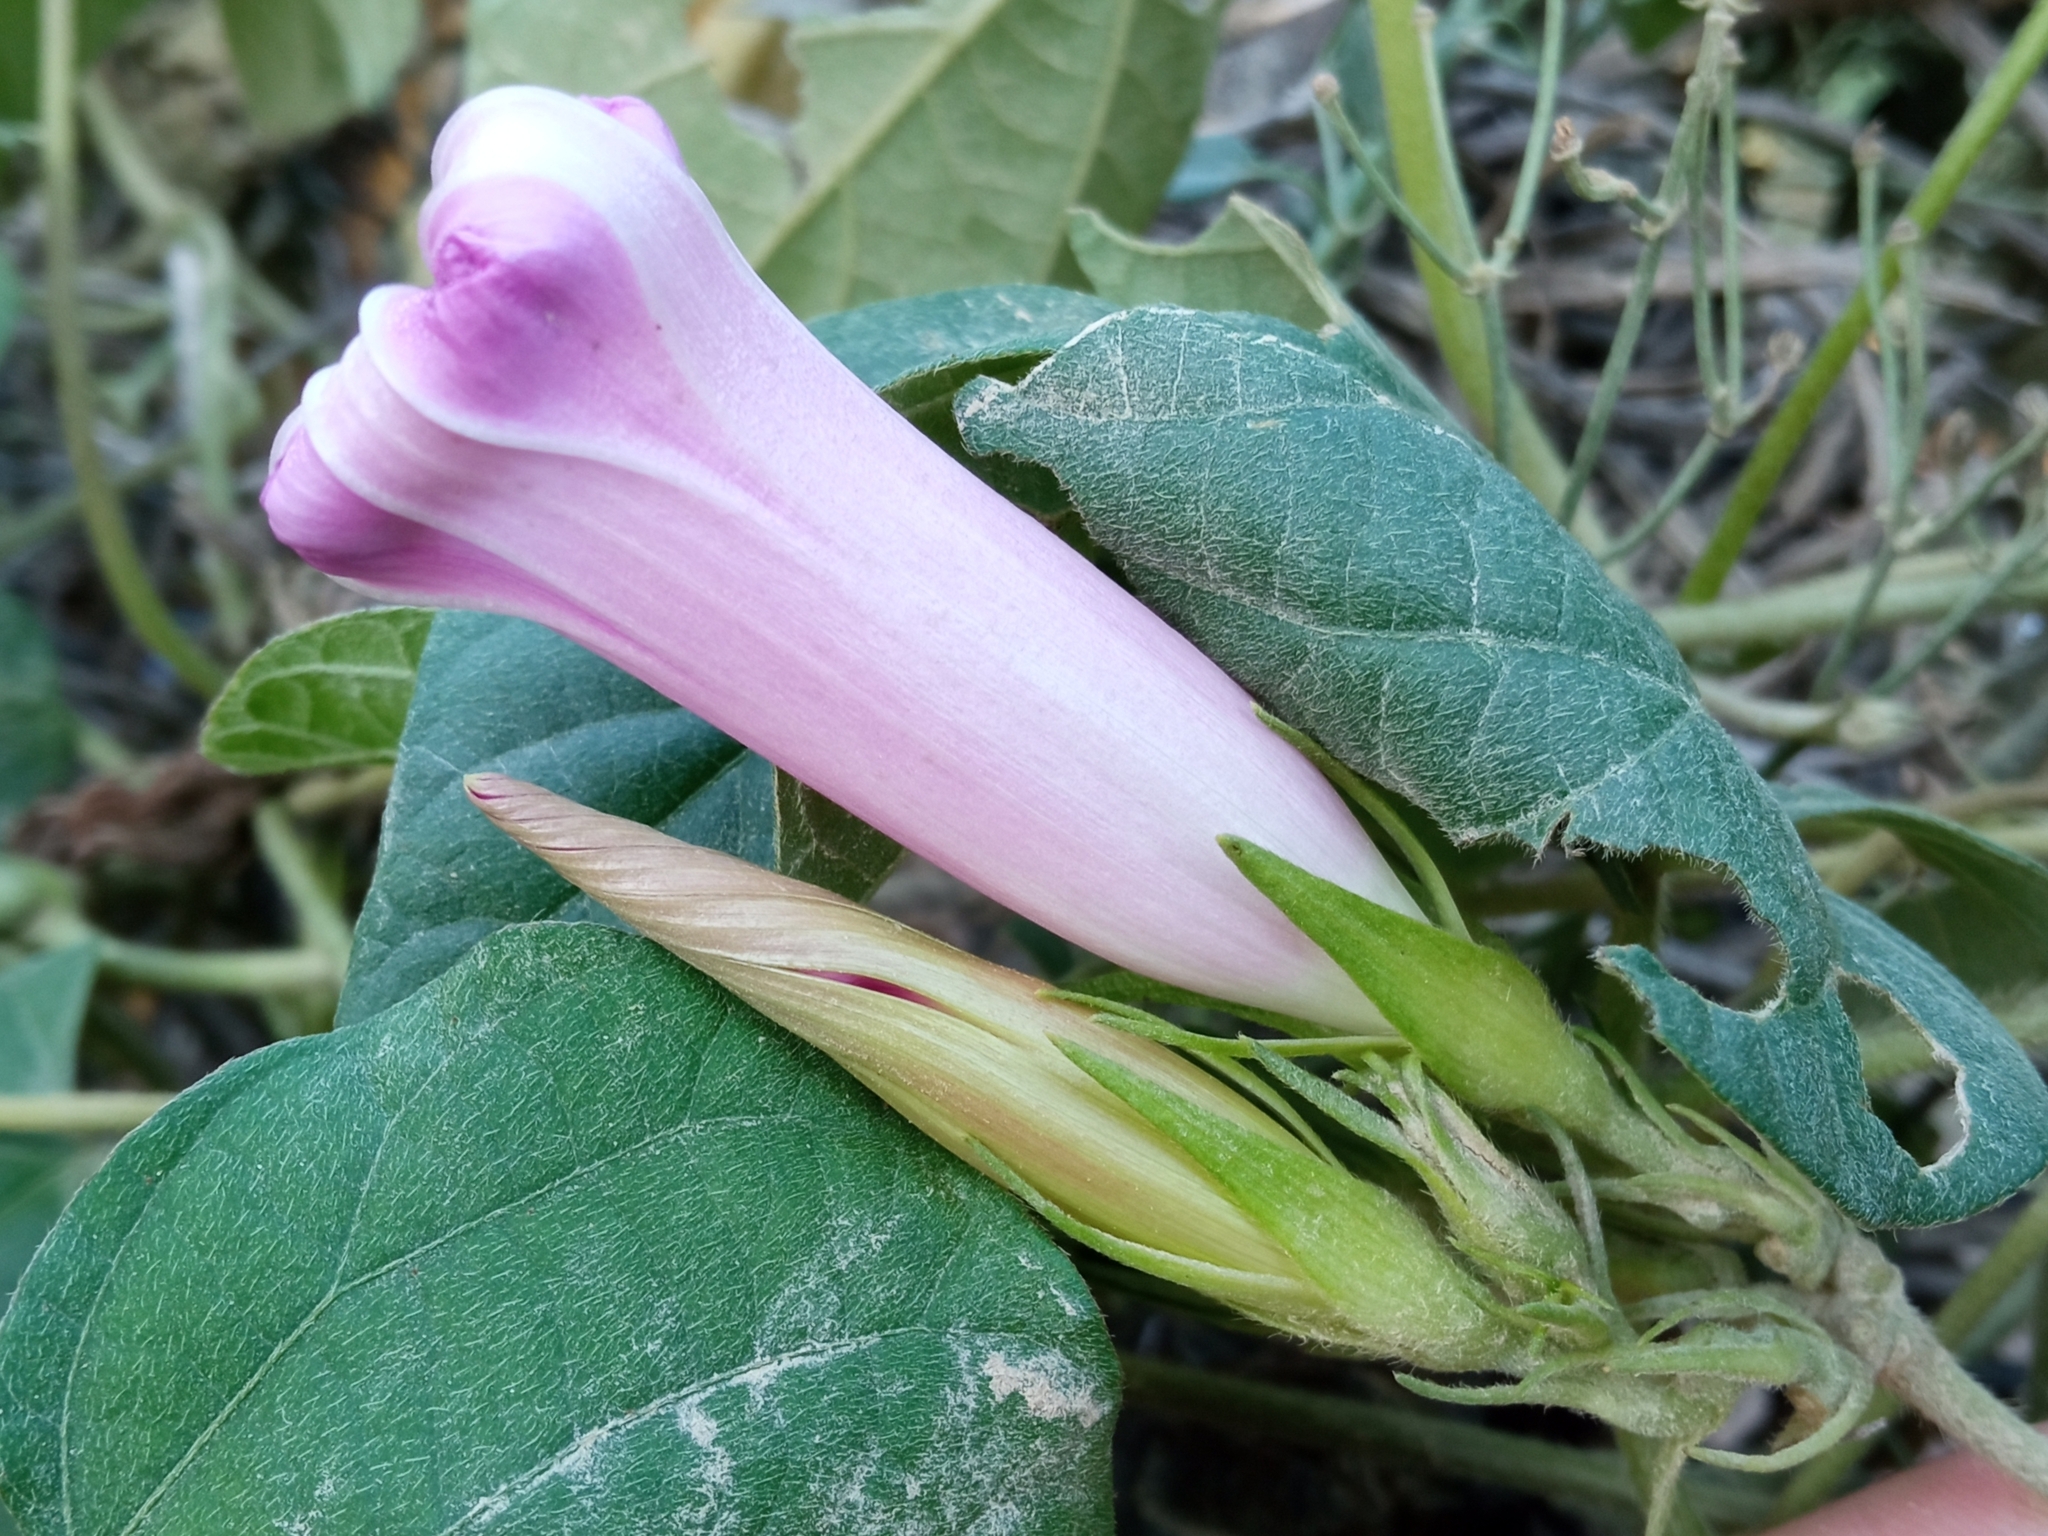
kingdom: Plantae
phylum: Tracheophyta
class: Magnoliopsida
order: Solanales
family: Convolvulaceae
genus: Ipomoea
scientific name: Ipomoea indica
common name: Blue dawnflower
